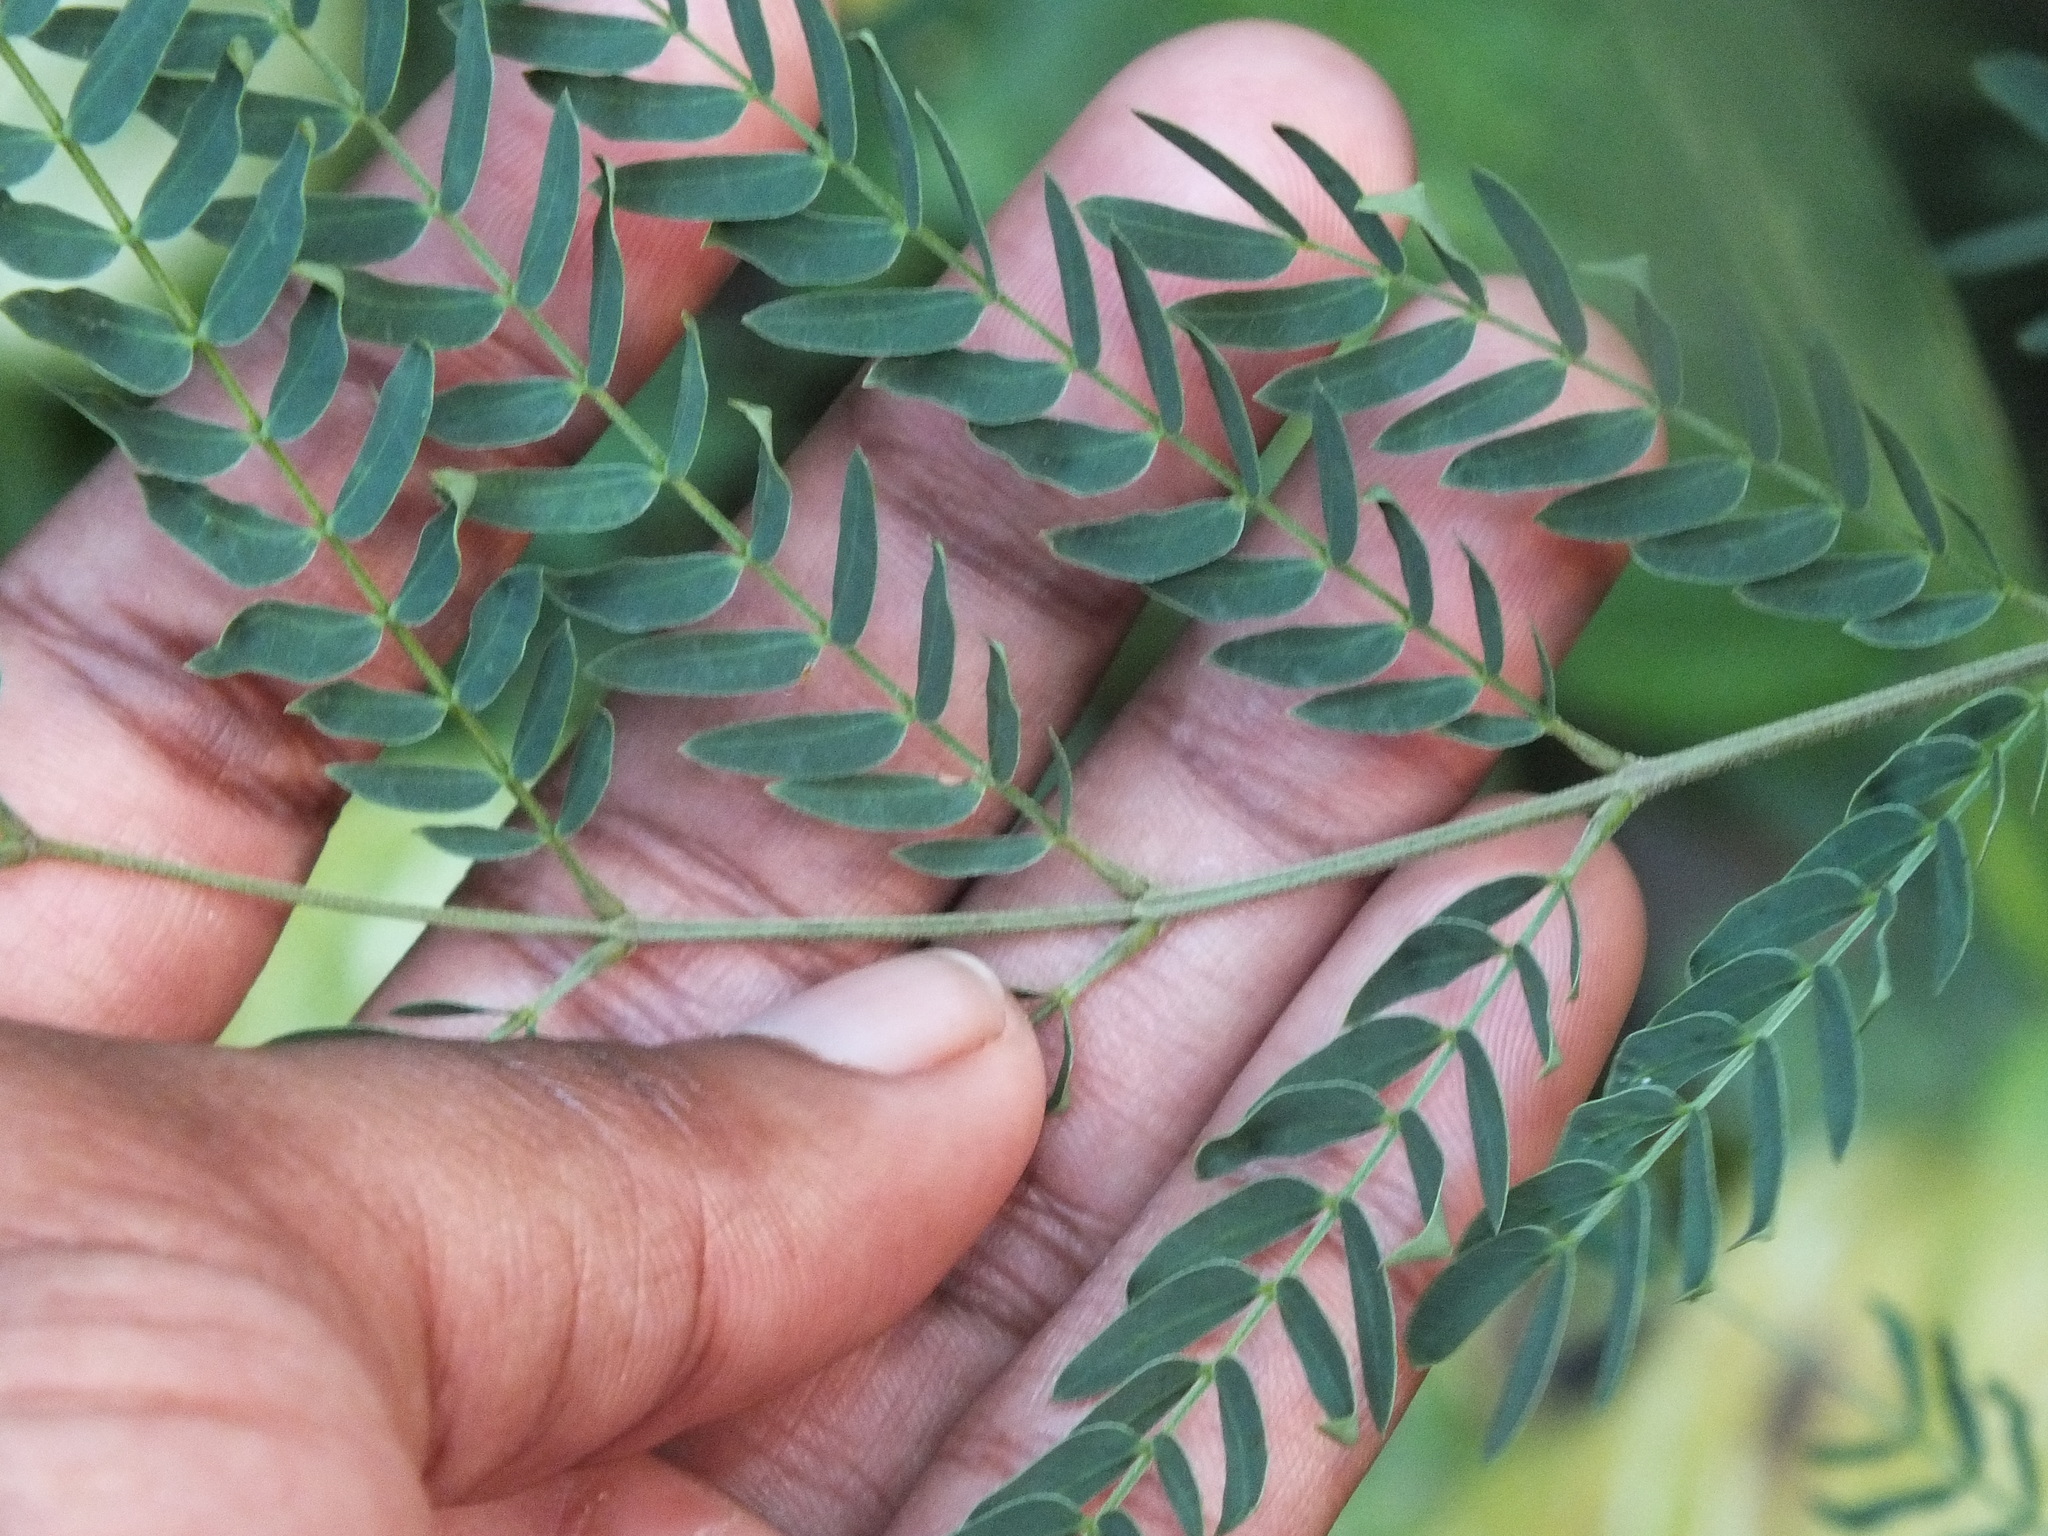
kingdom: Plantae
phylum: Tracheophyta
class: Magnoliopsida
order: Fabales
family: Fabaceae
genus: Leucaena
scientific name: Leucaena leucocephala
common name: White leadtree
